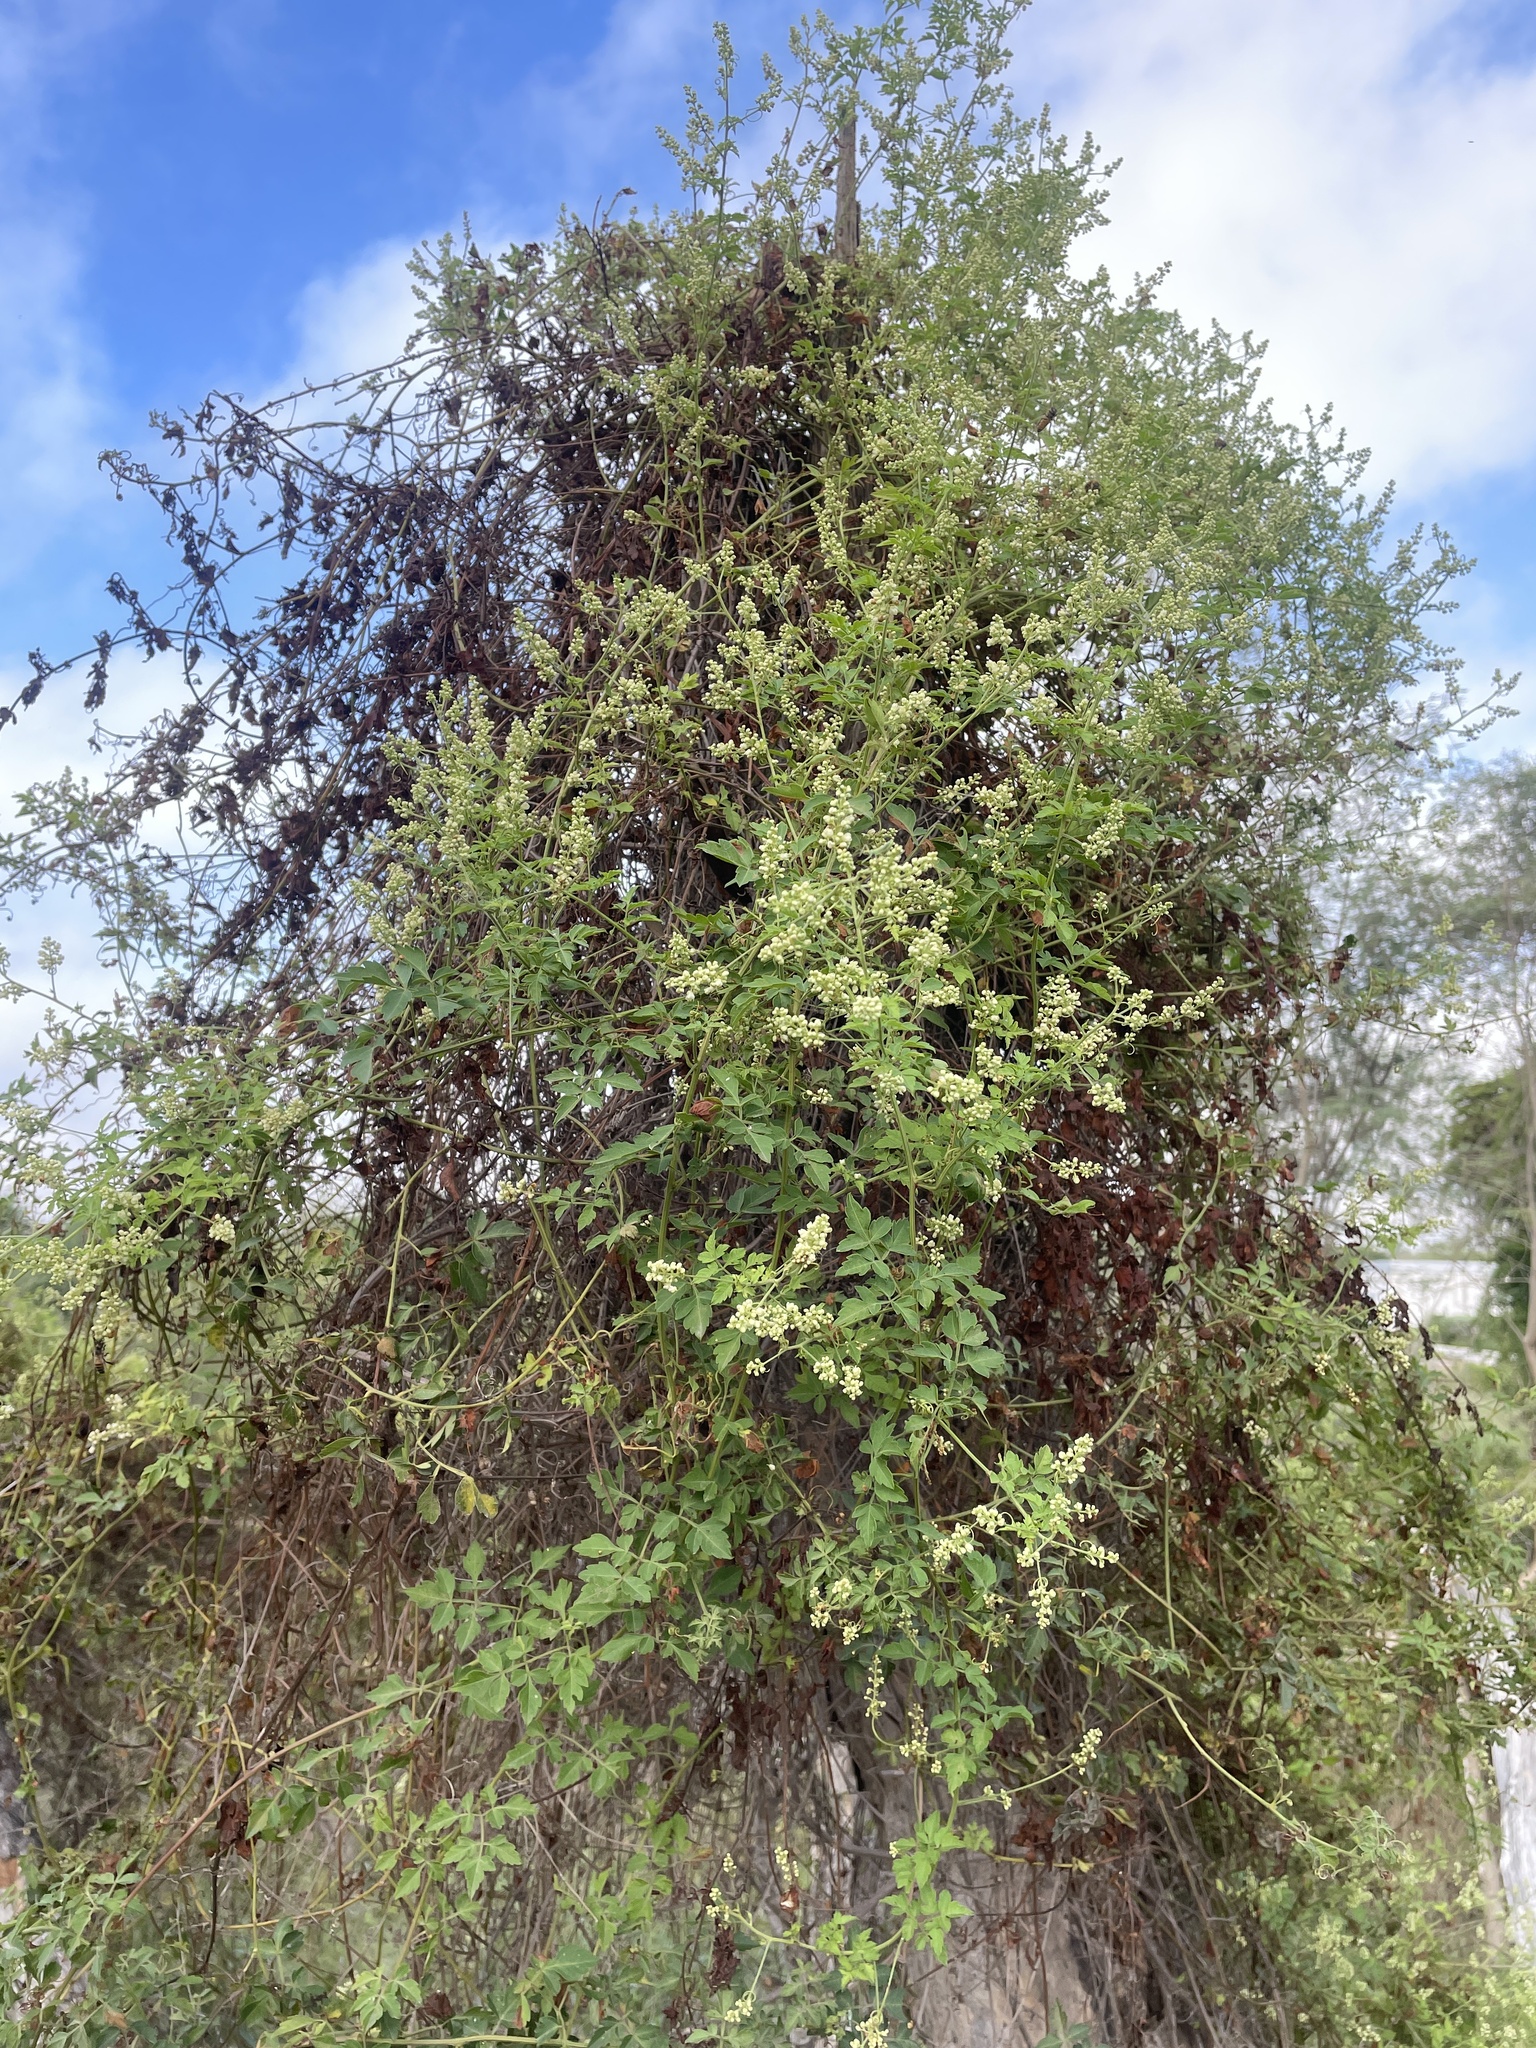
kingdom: Plantae
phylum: Tracheophyta
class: Magnoliopsida
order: Sapindales
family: Sapindaceae
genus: Serjania
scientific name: Serjania brachycarpa
